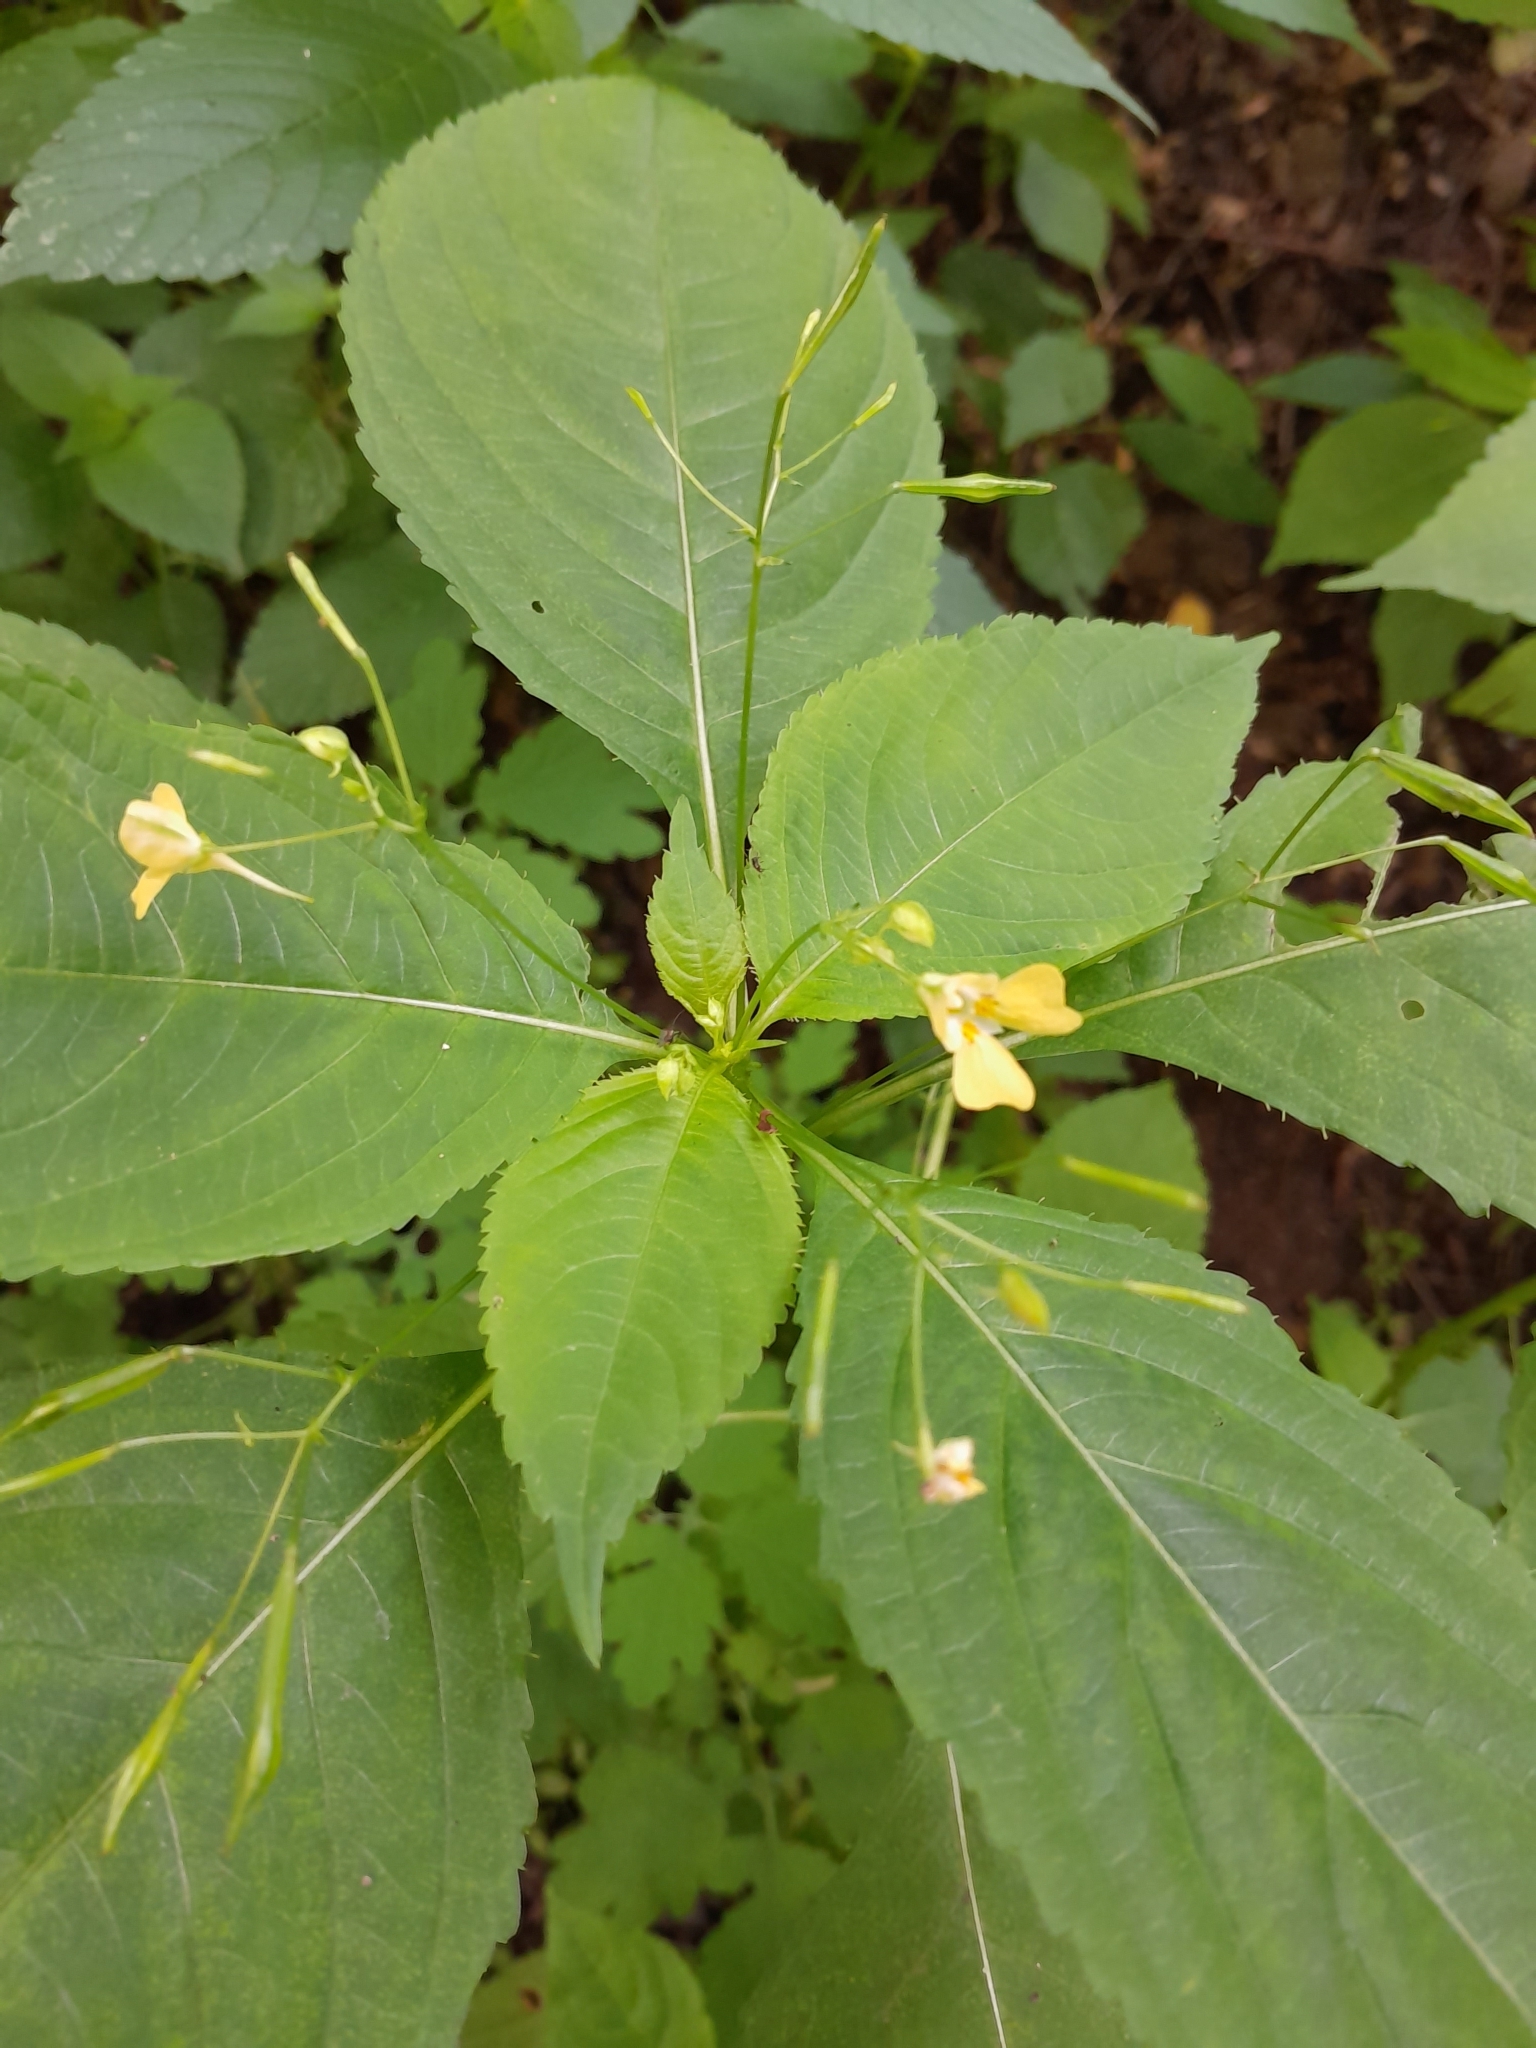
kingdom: Plantae
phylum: Tracheophyta
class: Magnoliopsida
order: Ericales
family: Balsaminaceae
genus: Impatiens
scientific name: Impatiens parviflora
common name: Small balsam
